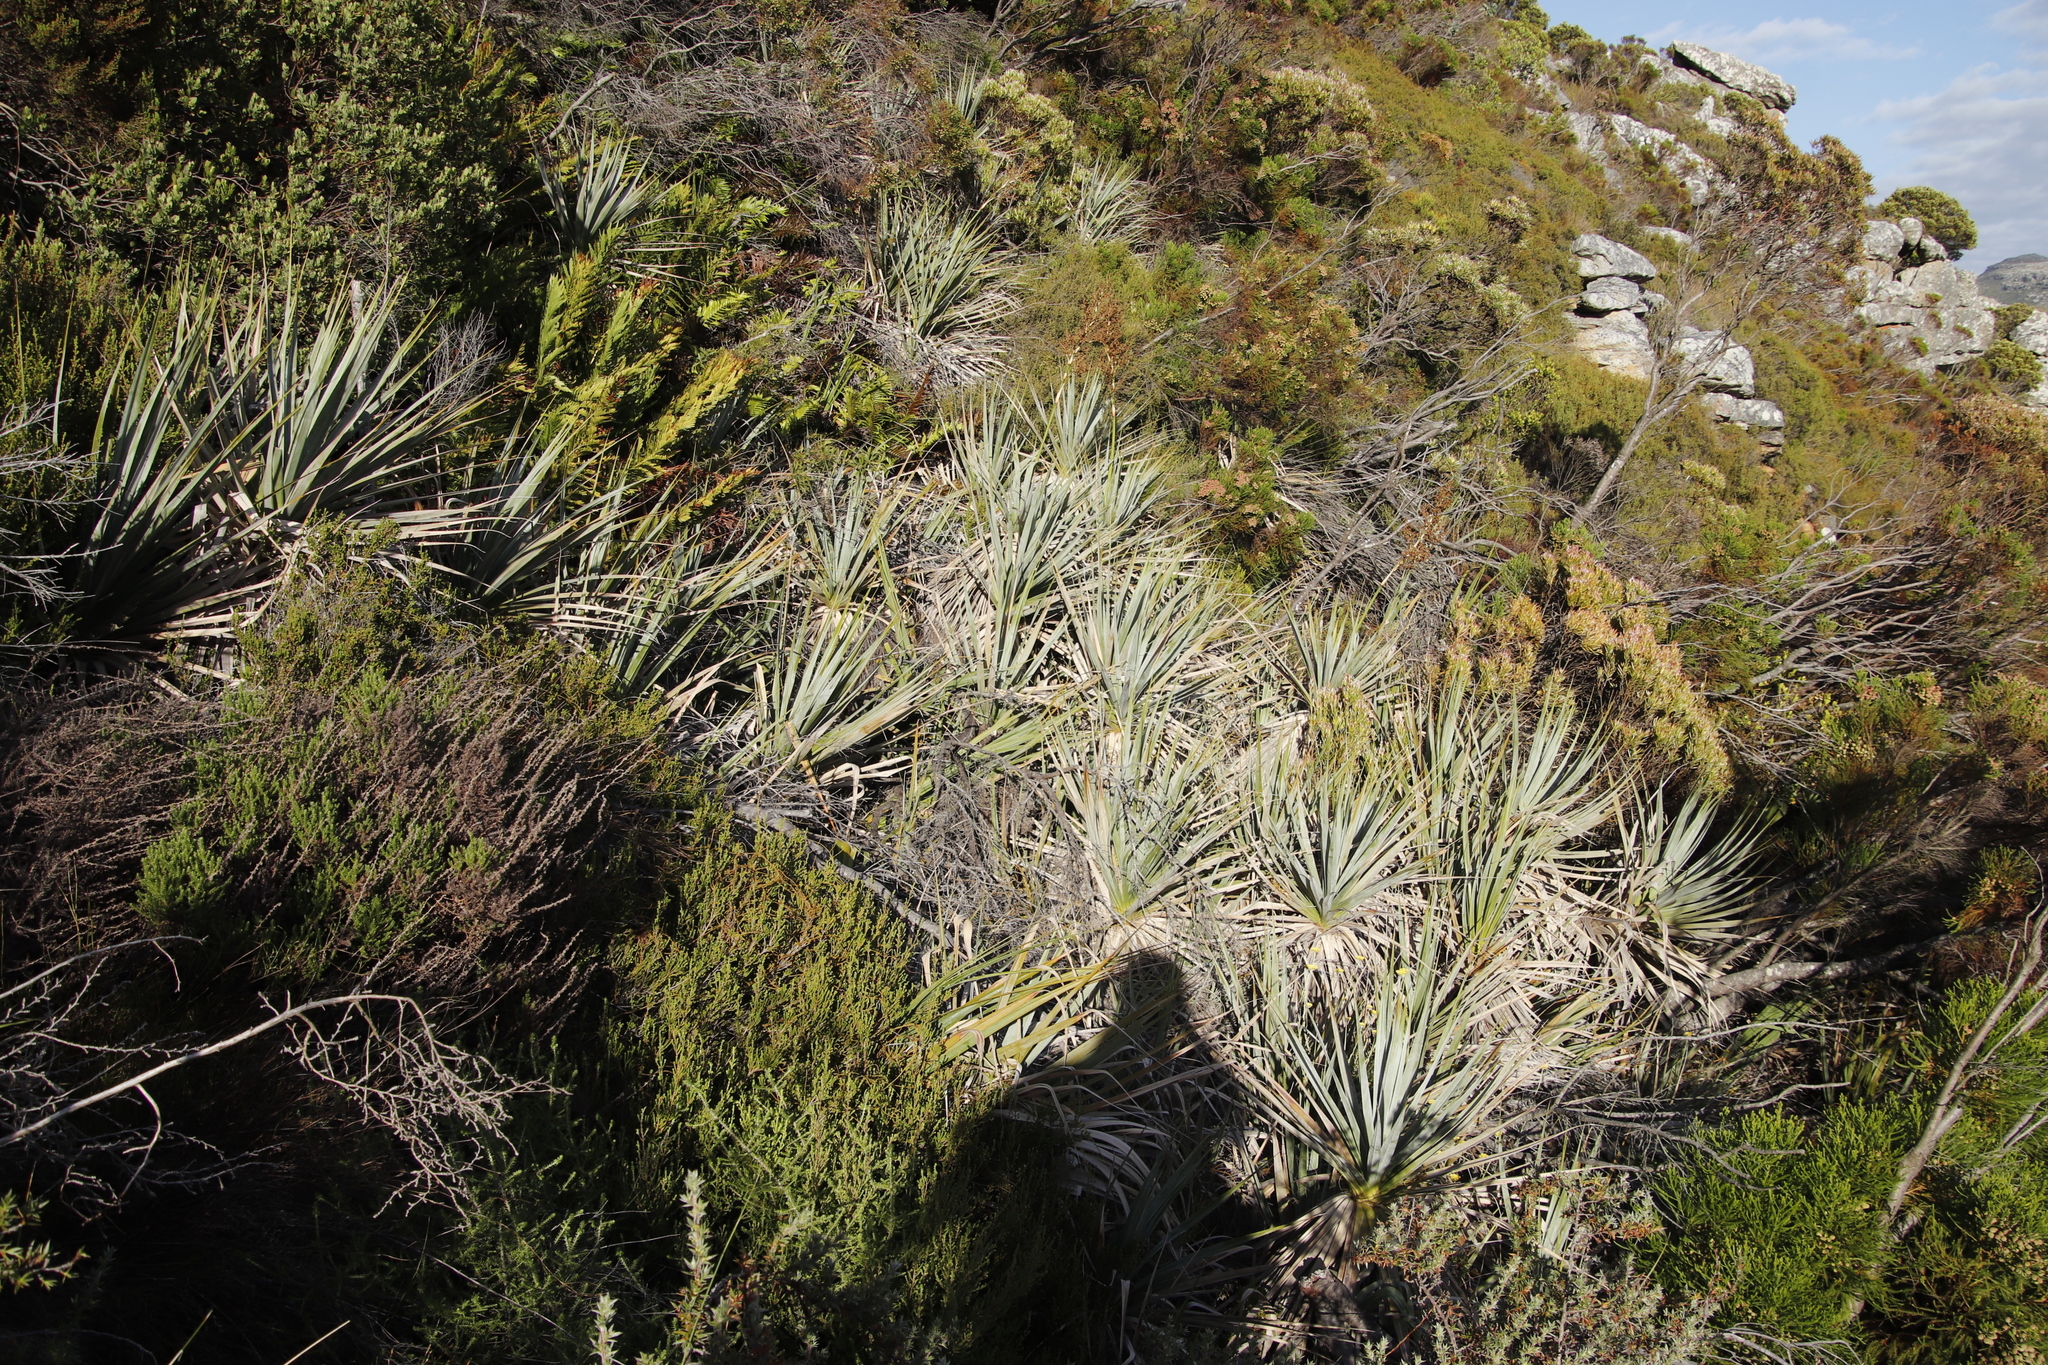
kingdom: Plantae
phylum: Tracheophyta
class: Liliopsida
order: Poales
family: Thurniaceae
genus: Prionium
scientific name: Prionium serratum
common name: Palmiet
